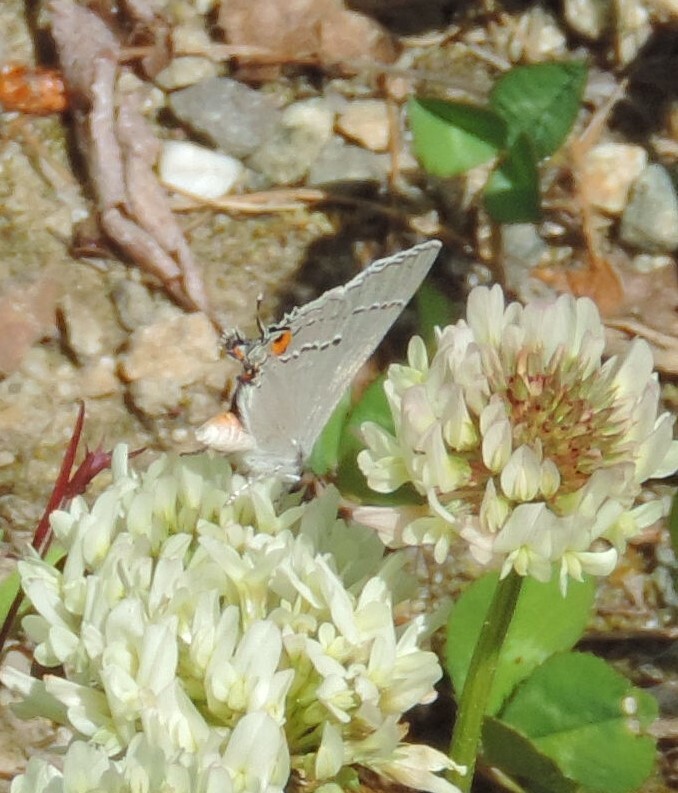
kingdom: Animalia
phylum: Arthropoda
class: Insecta
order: Lepidoptera
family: Lycaenidae
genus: Strymon
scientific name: Strymon melinus
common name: Gray hairstreak
